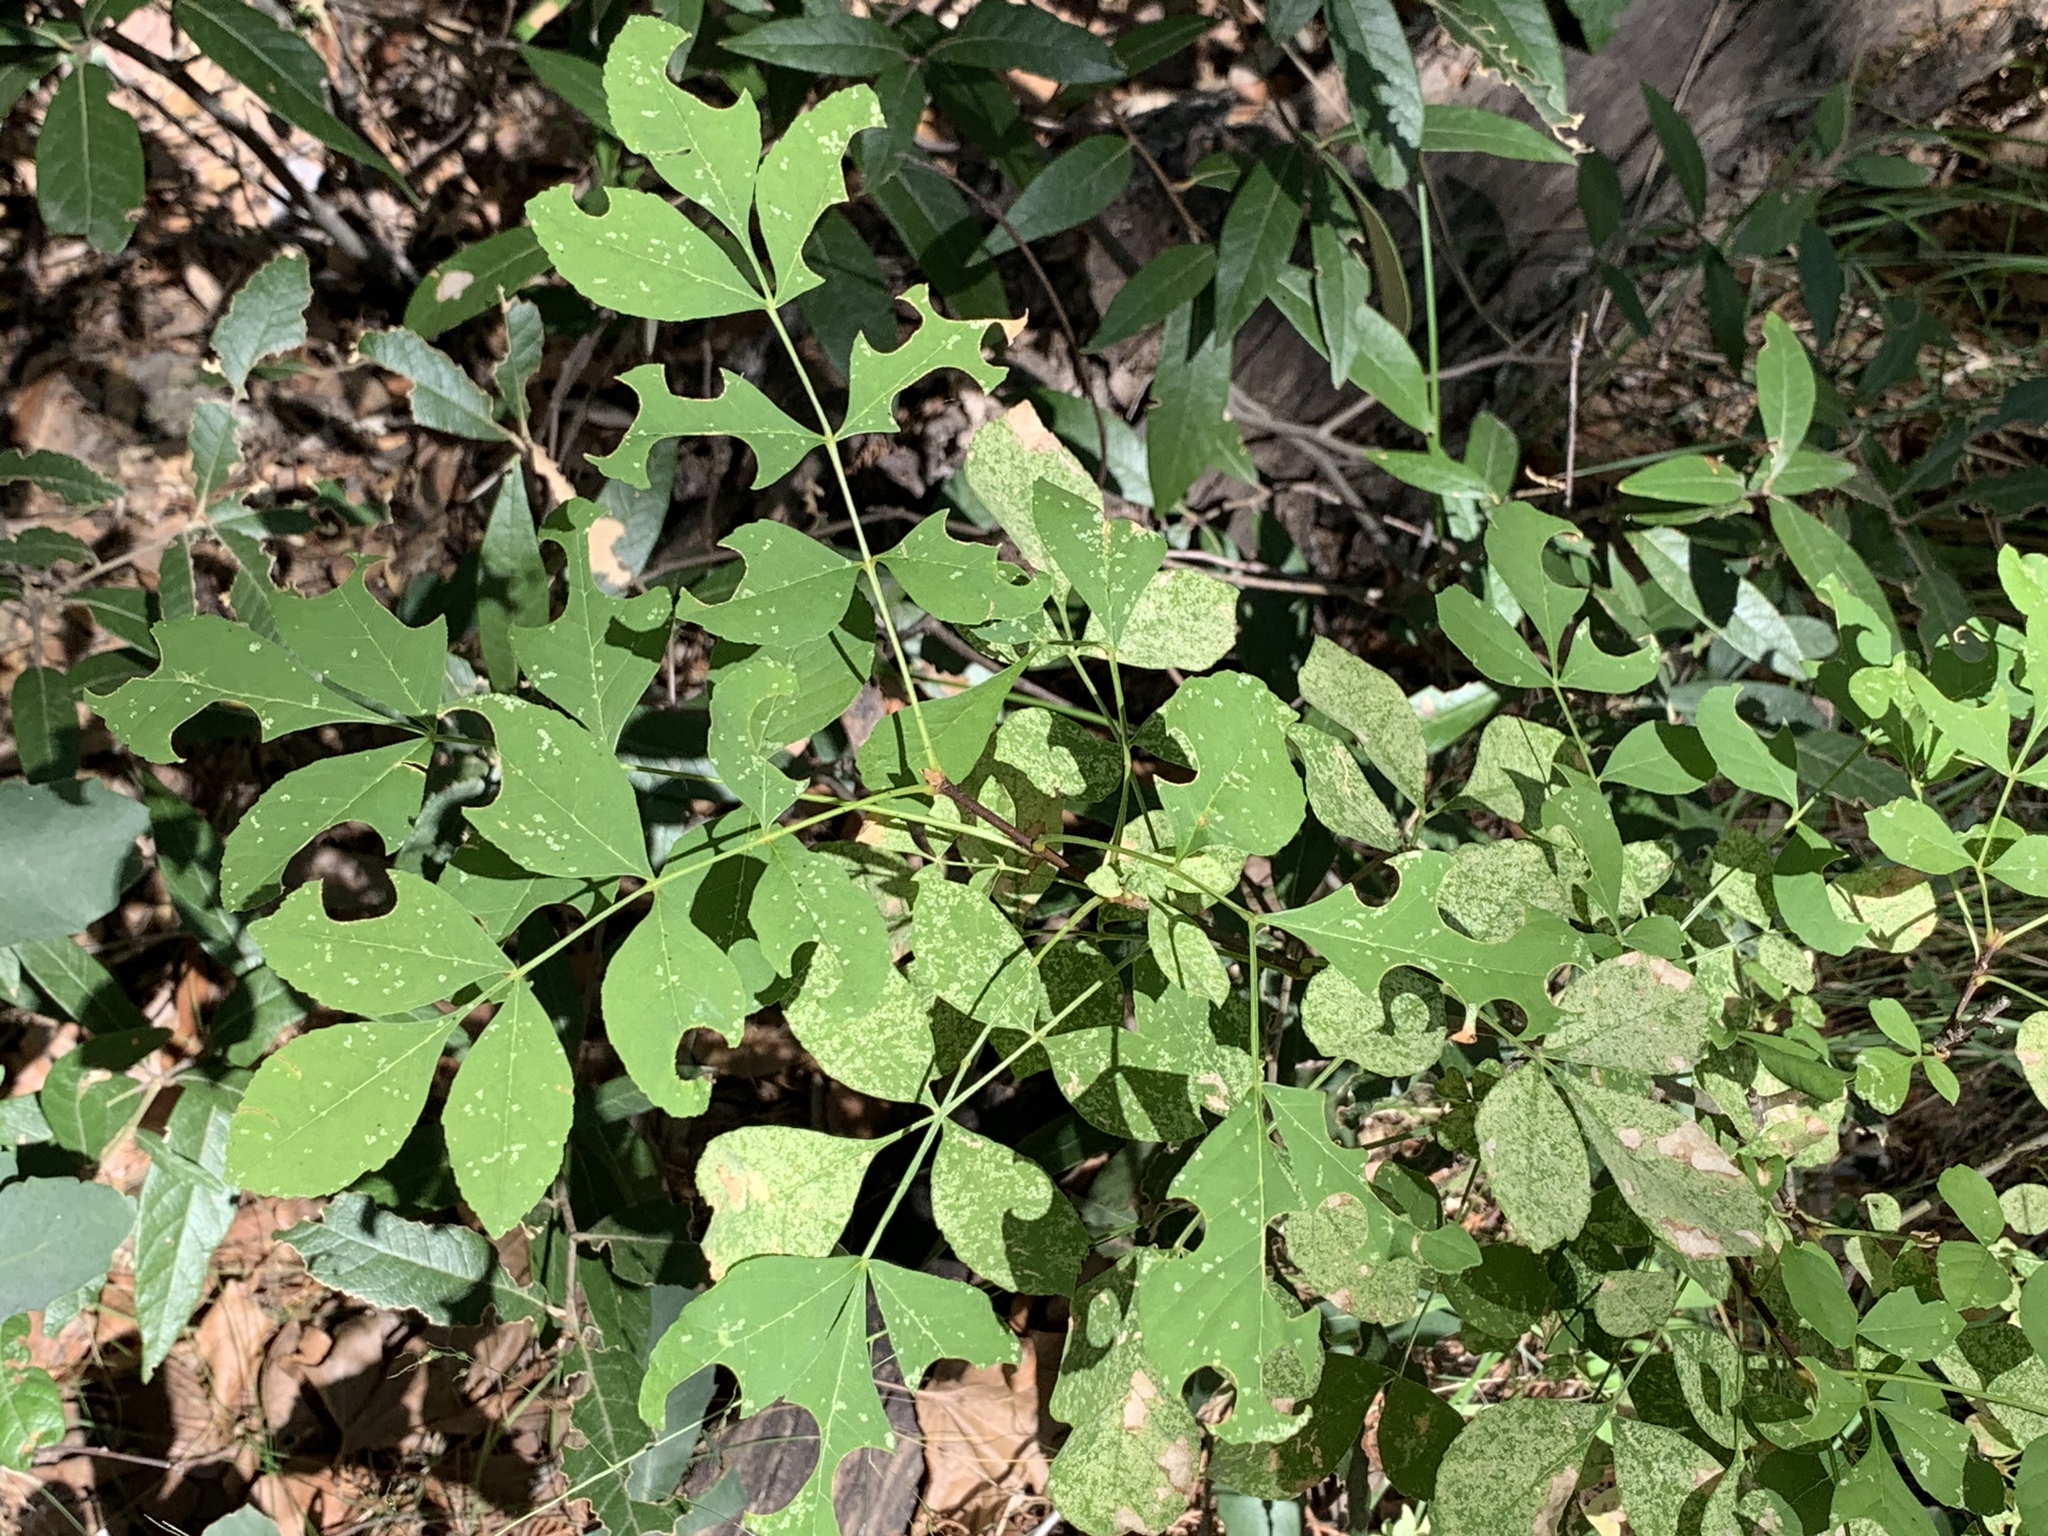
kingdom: Plantae
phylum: Tracheophyta
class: Magnoliopsida
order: Lamiales
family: Oleaceae
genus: Fraxinus
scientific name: Fraxinus velutina
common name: Arizon ash
